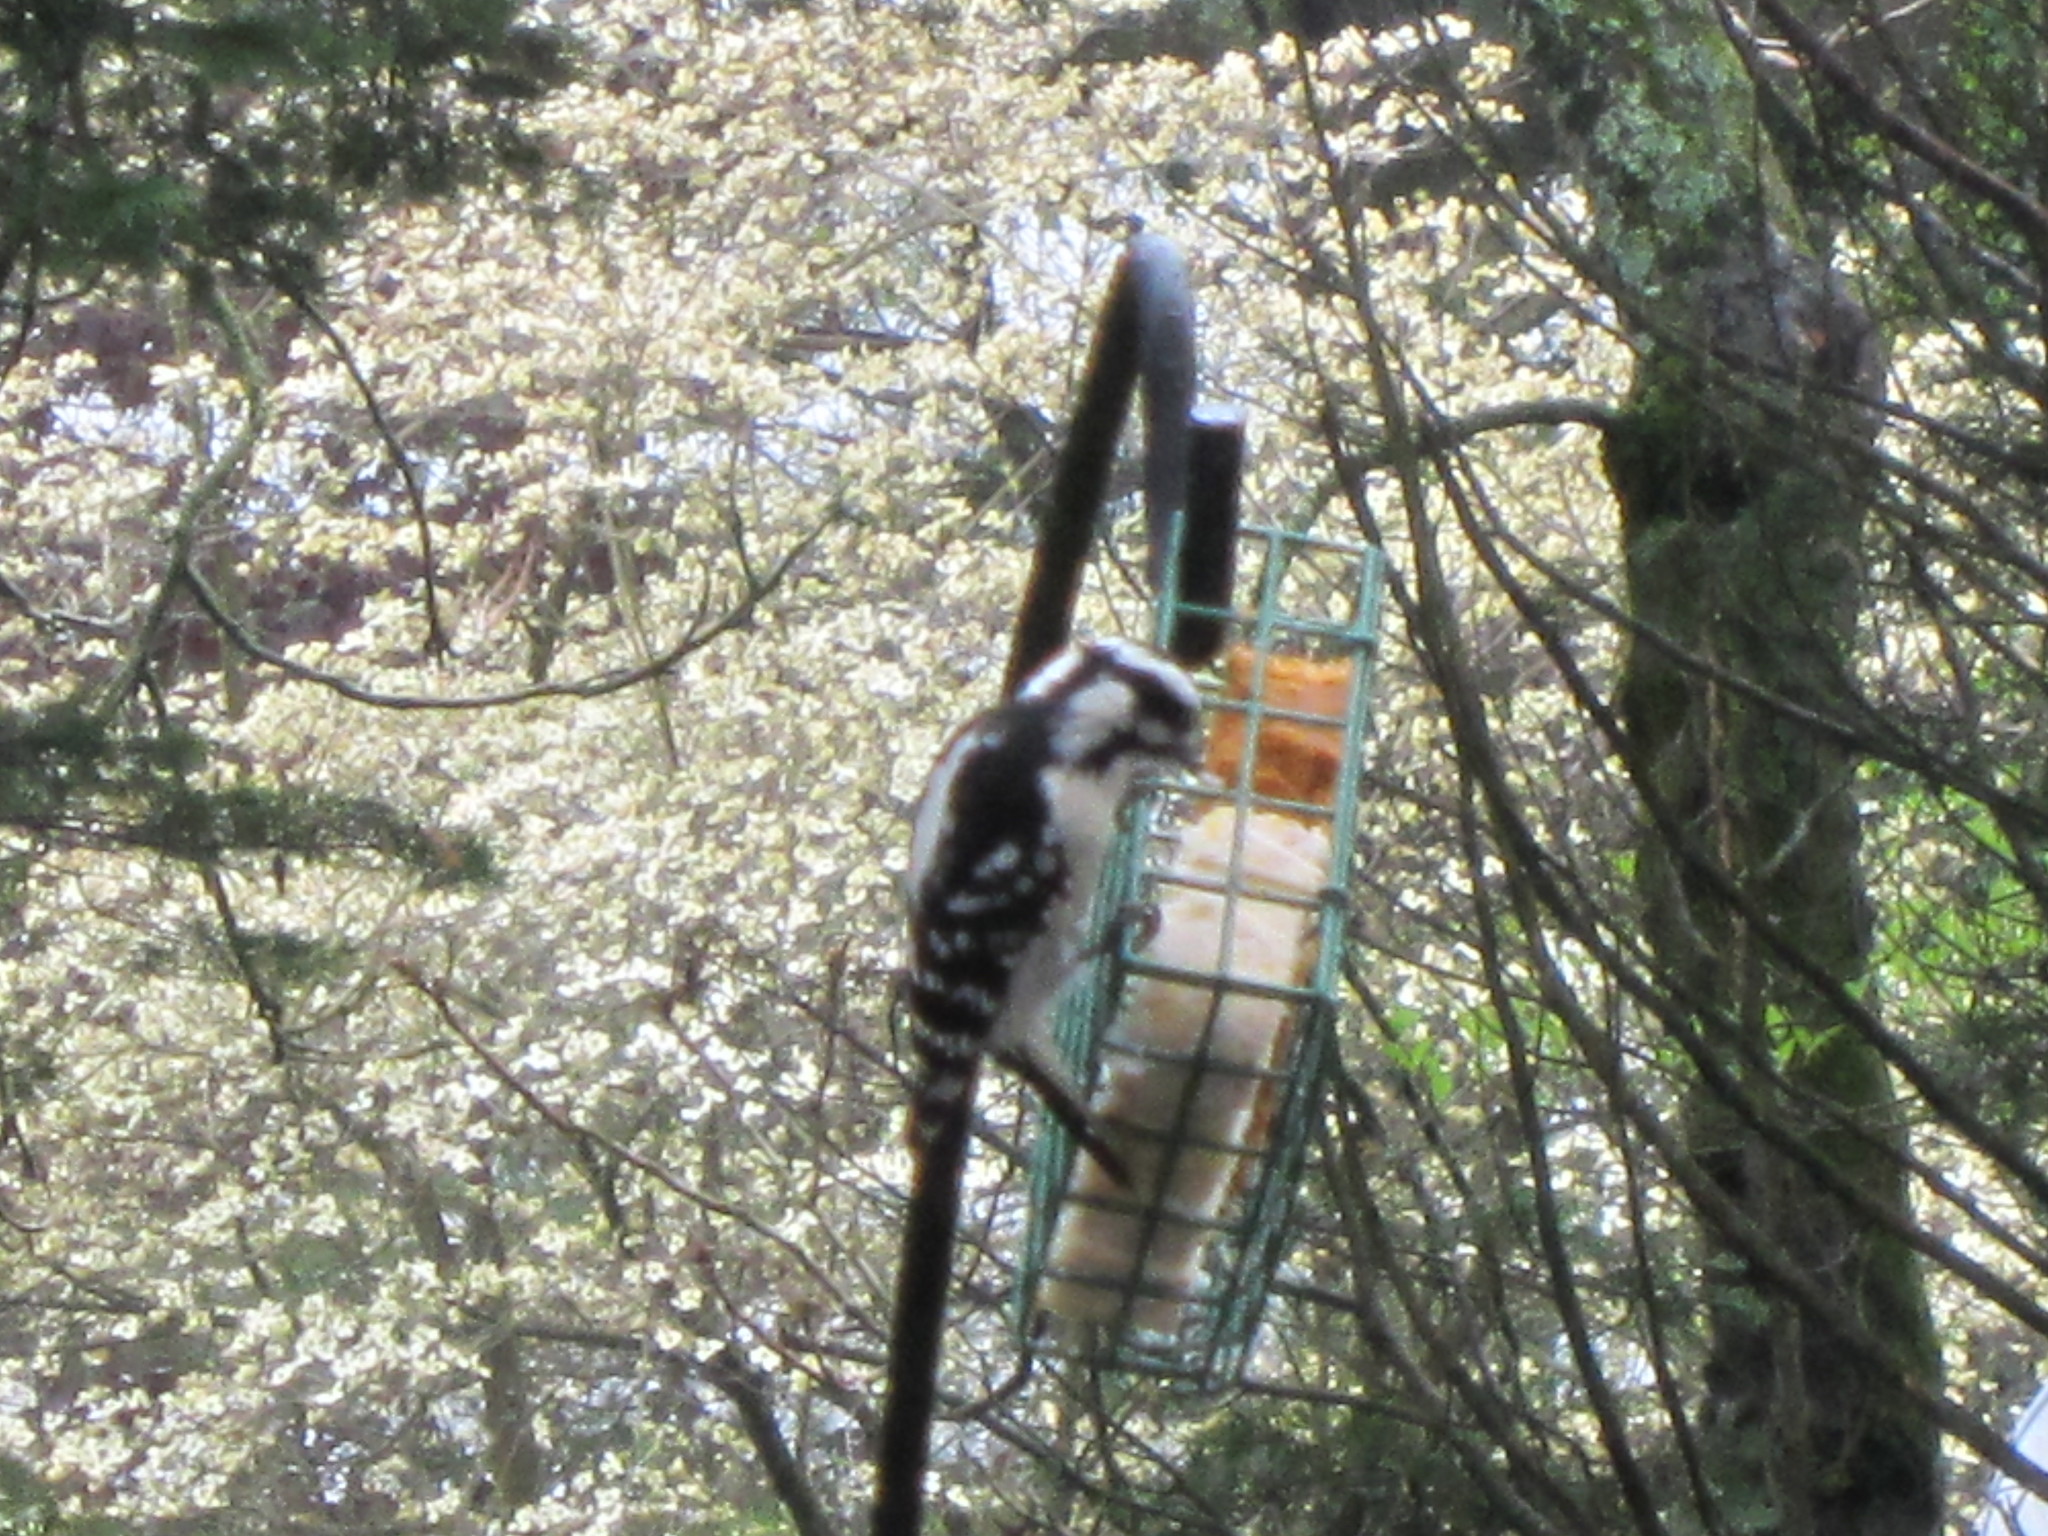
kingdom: Animalia
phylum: Chordata
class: Aves
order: Piciformes
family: Picidae
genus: Dryobates
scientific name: Dryobates pubescens
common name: Downy woodpecker
